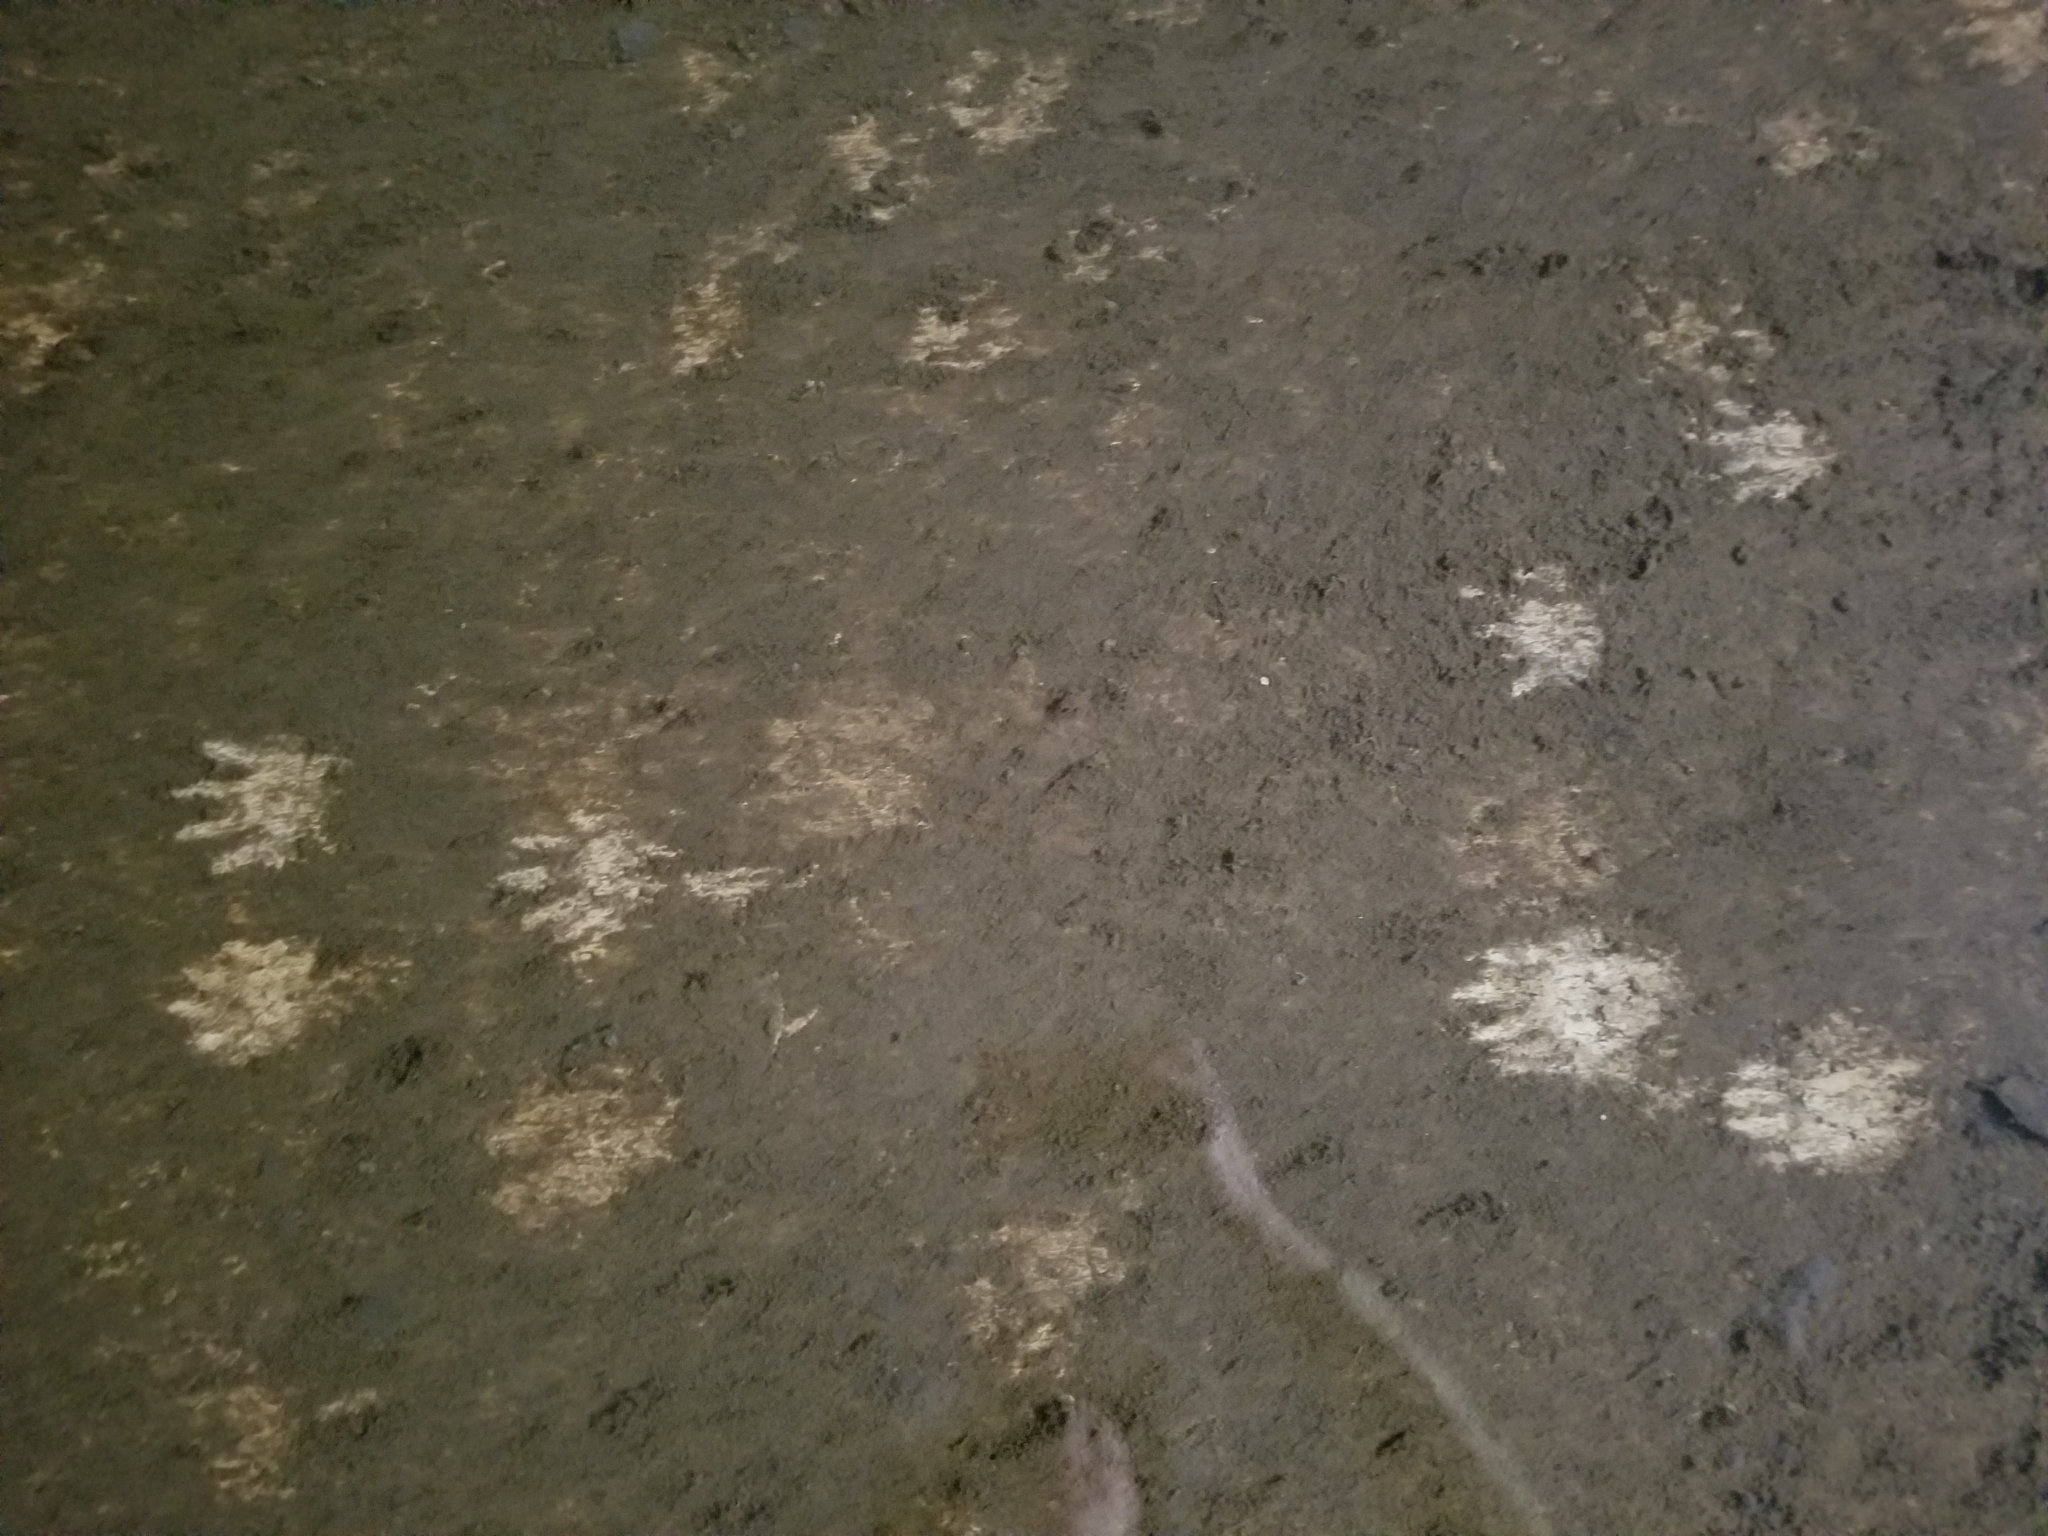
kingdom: Animalia
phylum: Chordata
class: Mammalia
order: Carnivora
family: Procyonidae
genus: Procyon
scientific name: Procyon lotor
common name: Raccoon
